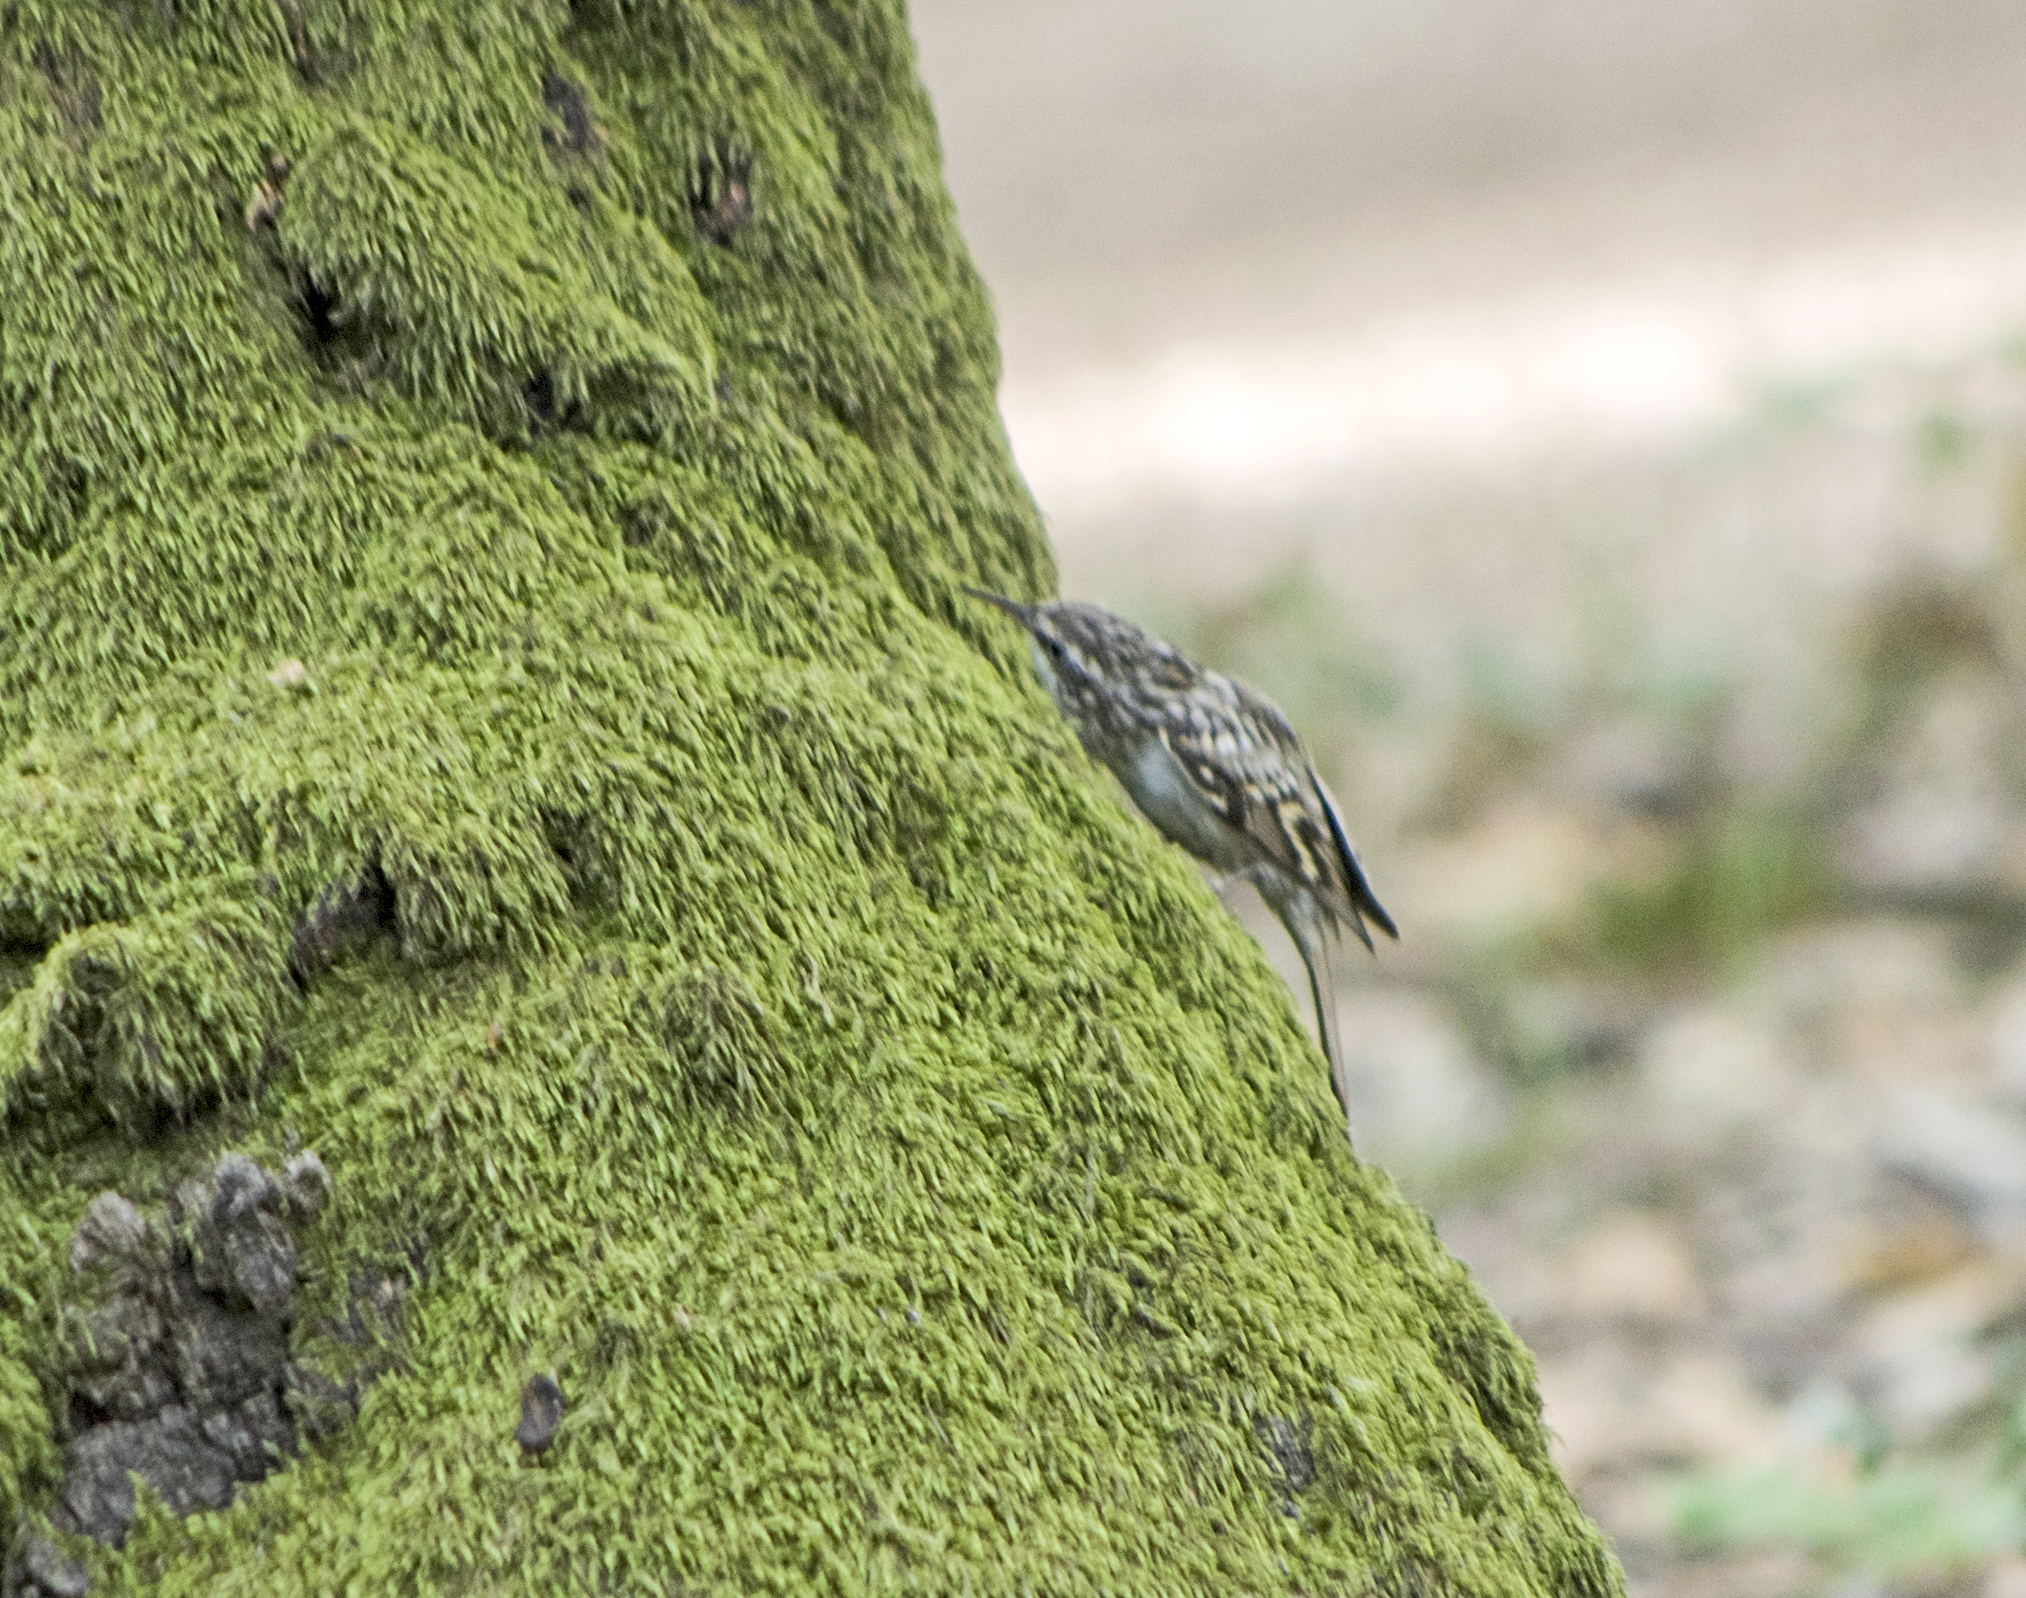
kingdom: Animalia
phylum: Chordata
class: Aves
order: Passeriformes
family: Certhiidae
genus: Certhia
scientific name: Certhia brachydactyla
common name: Short-toed treecreeper
